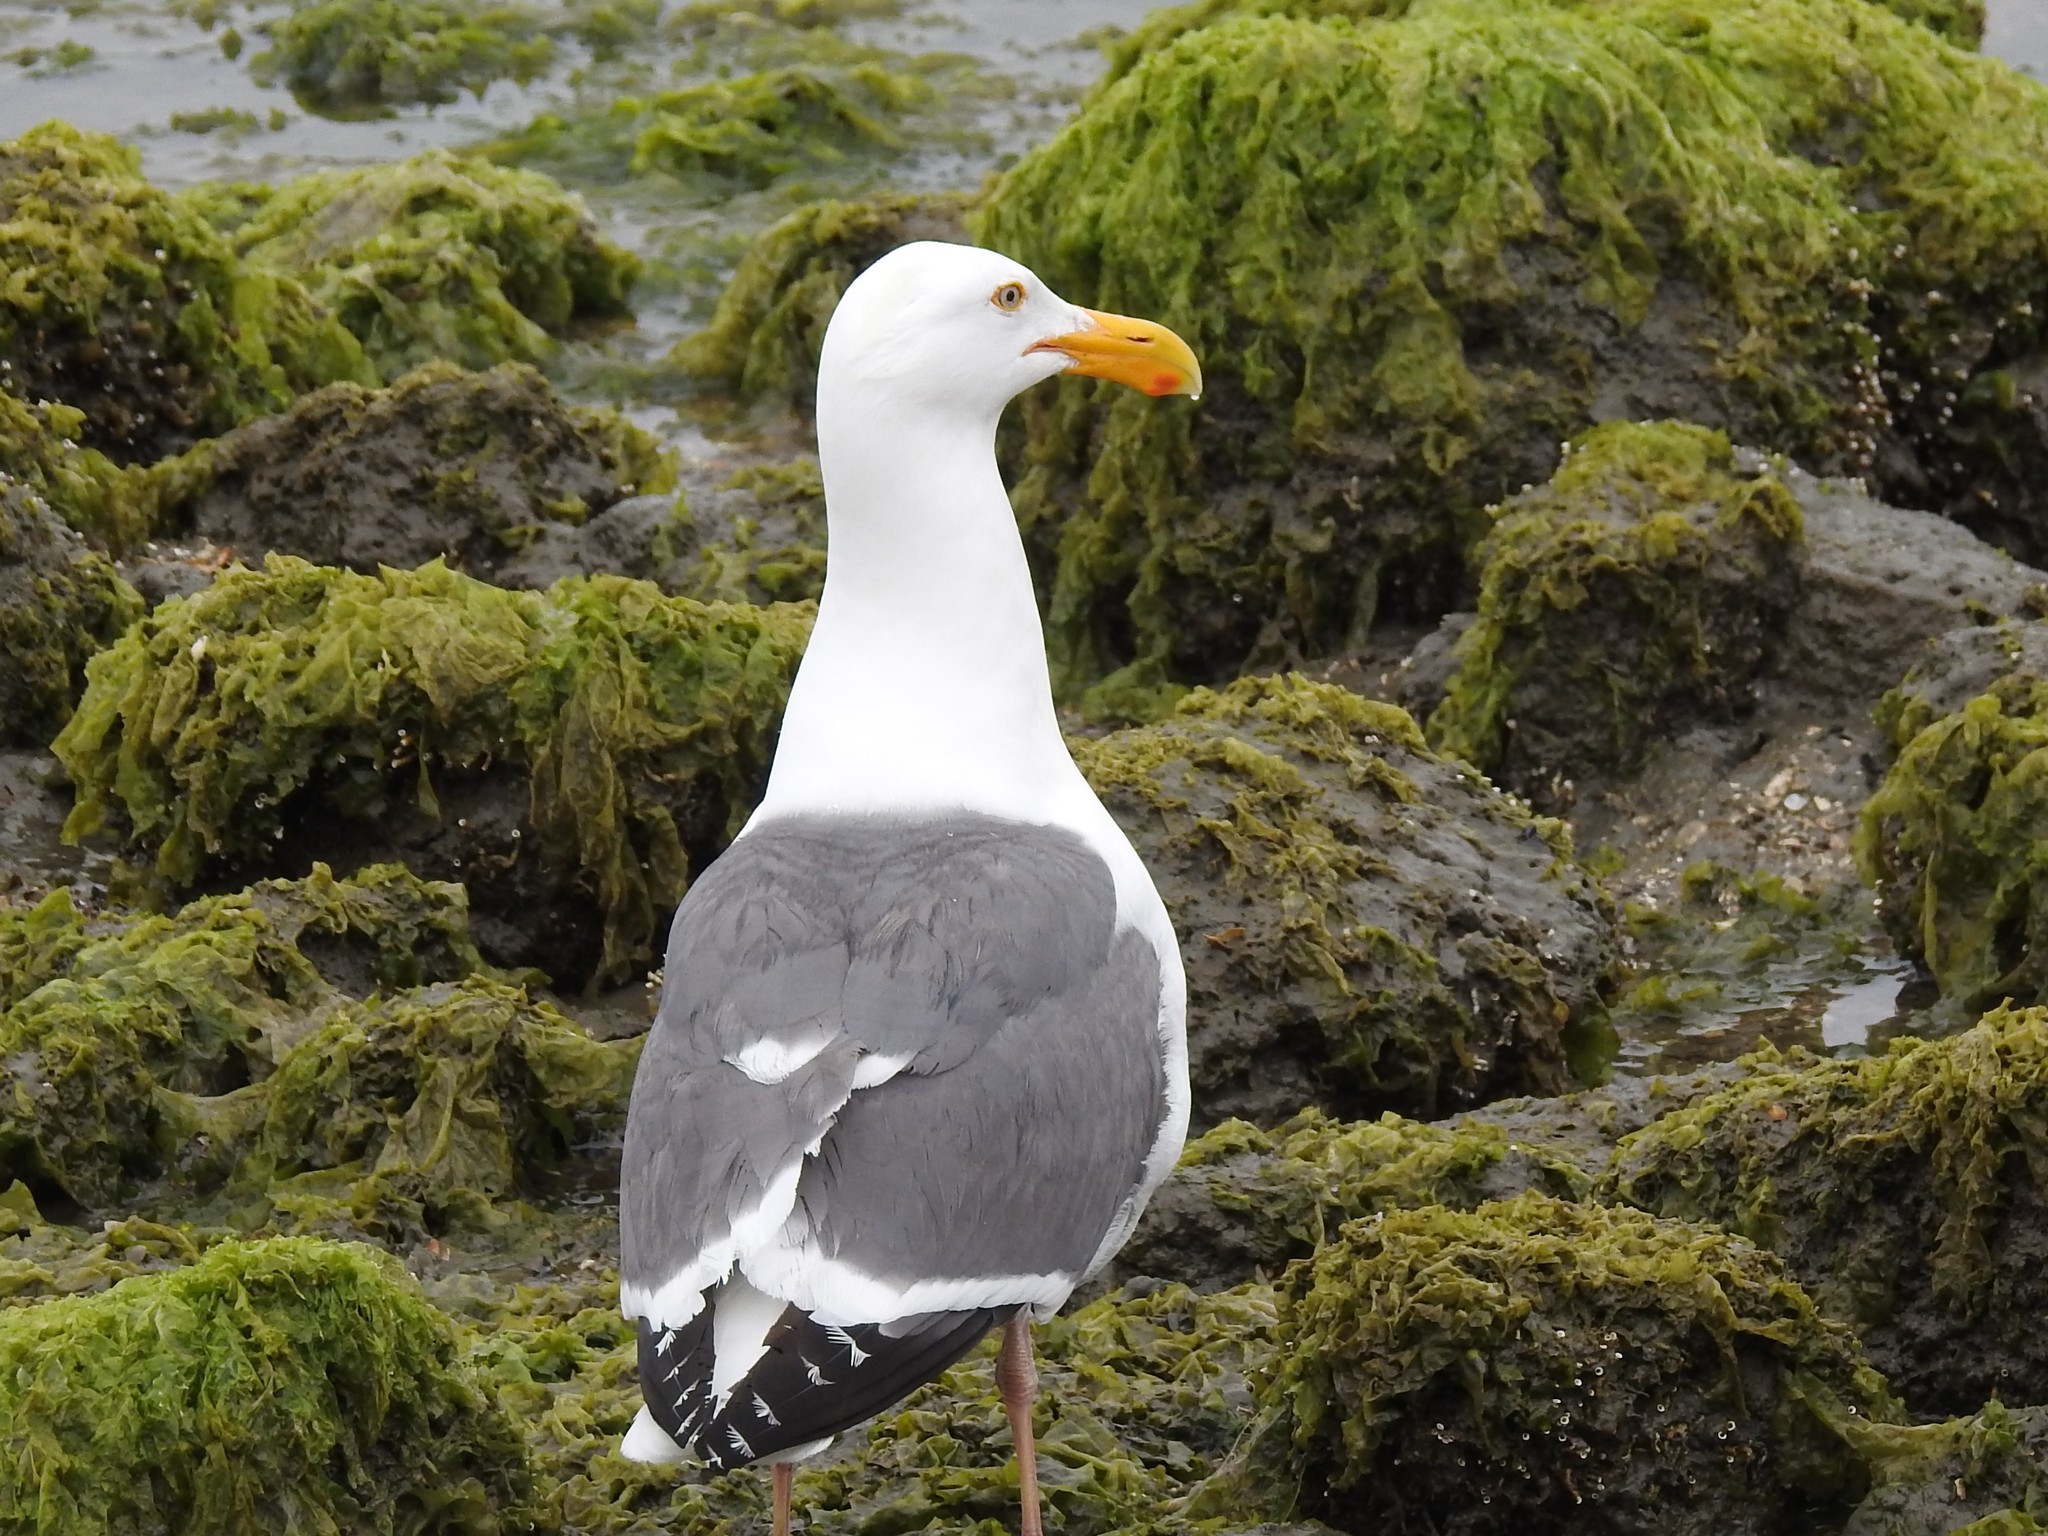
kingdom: Animalia
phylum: Chordata
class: Aves
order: Charadriiformes
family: Laridae
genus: Larus
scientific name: Larus occidentalis
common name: Western gull
